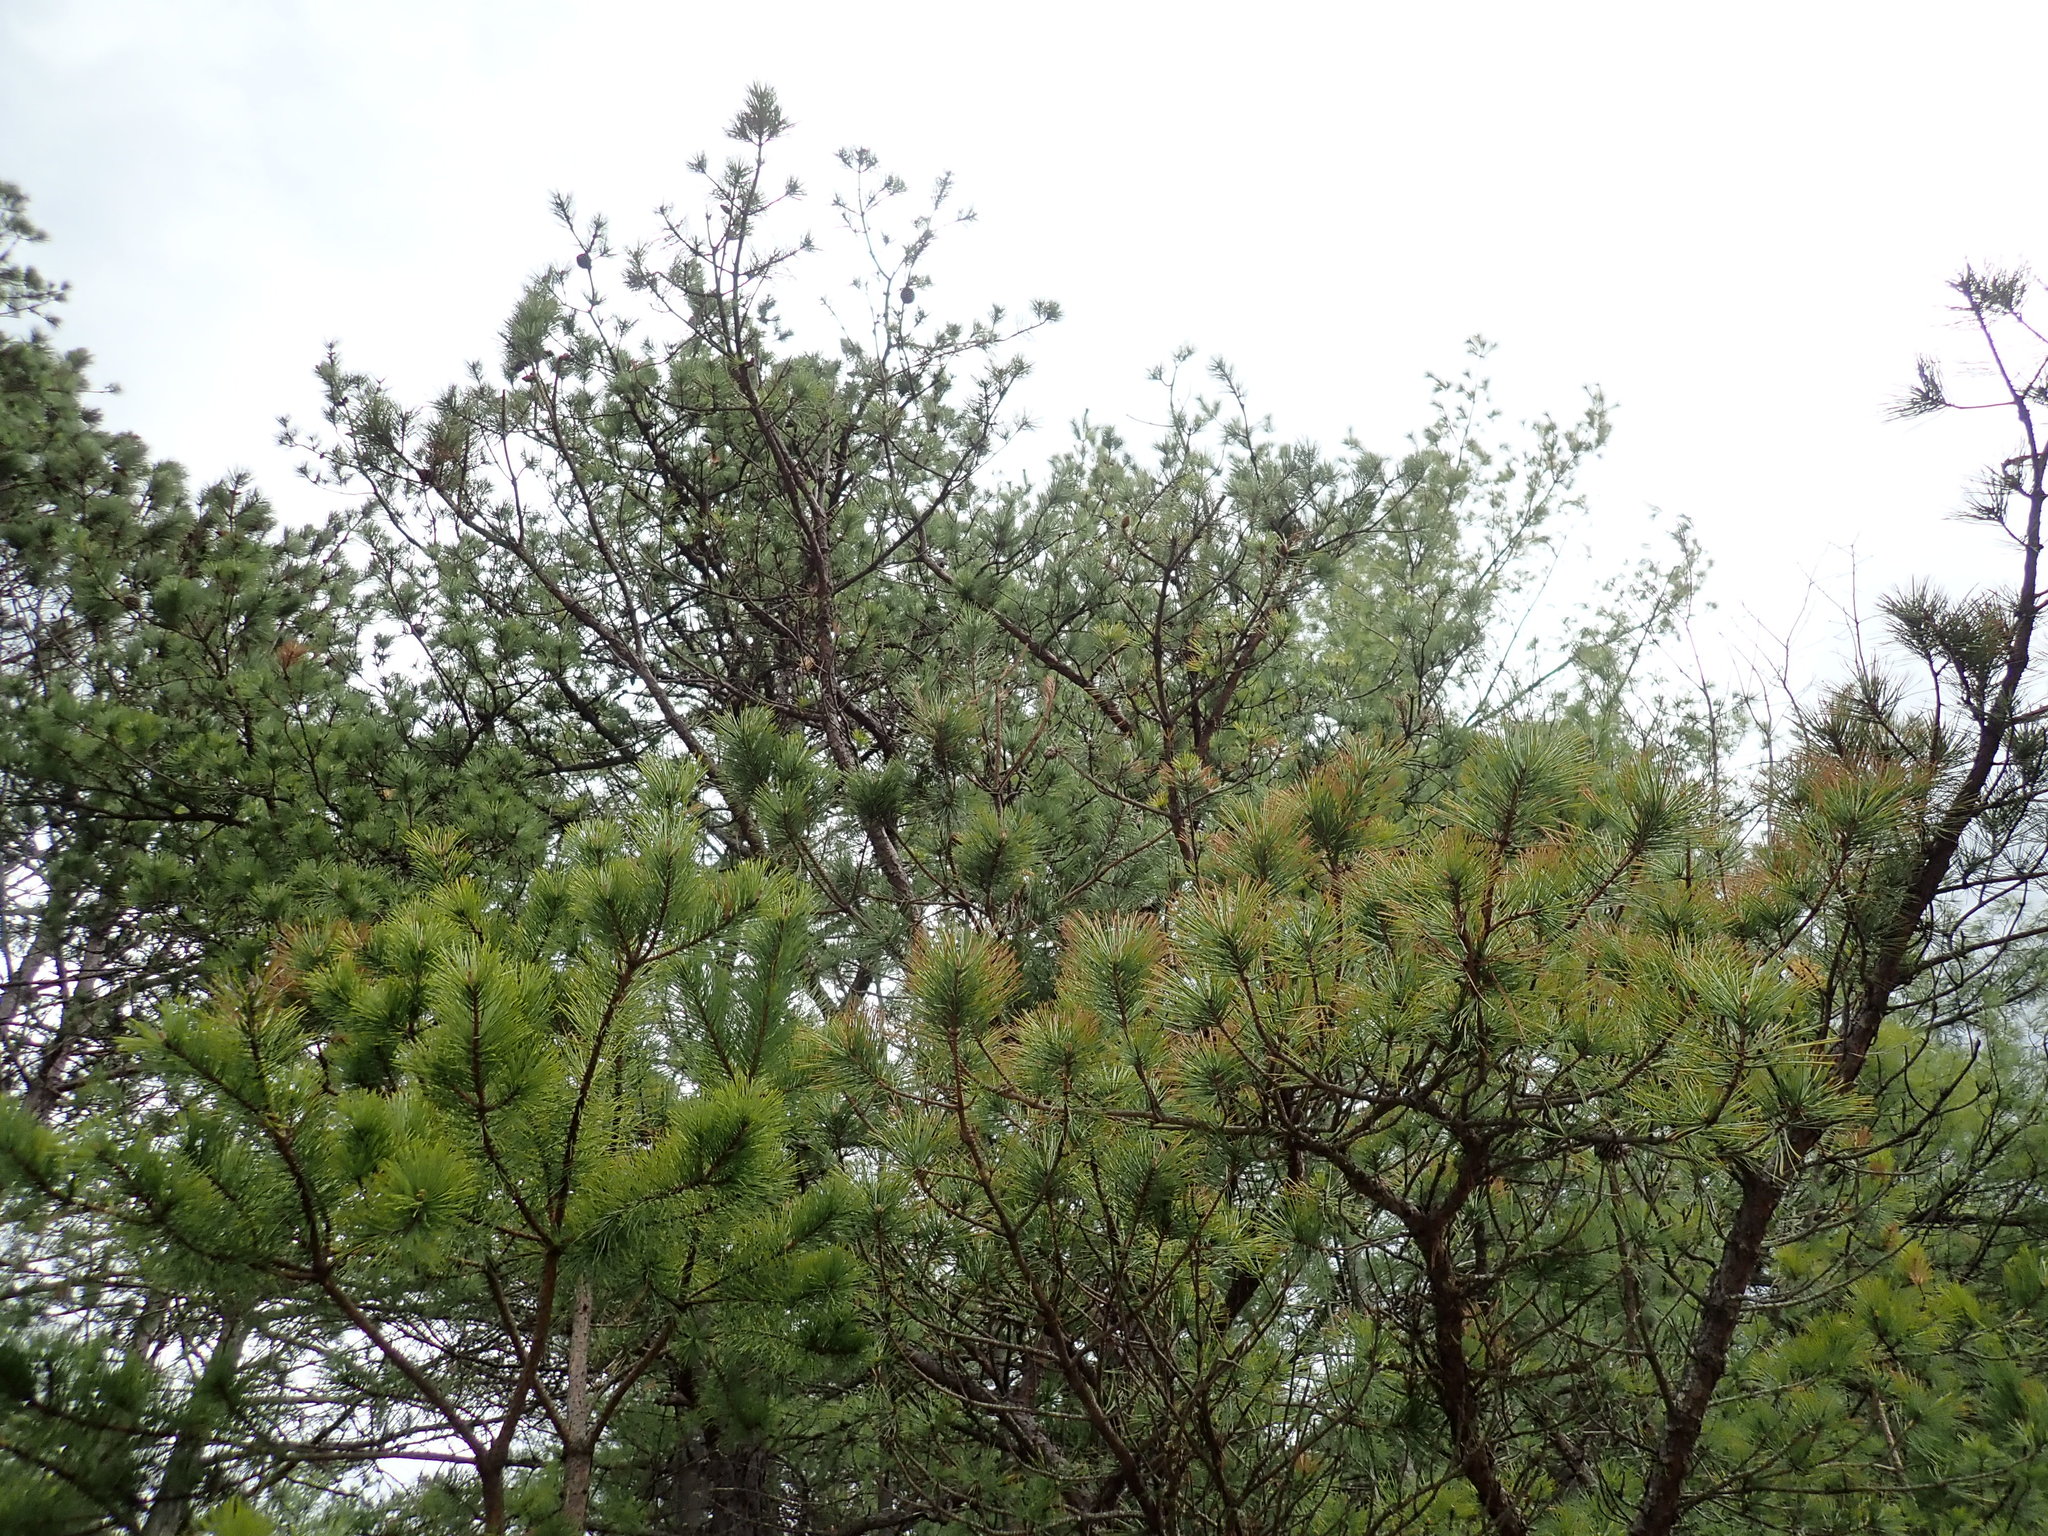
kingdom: Plantae
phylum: Tracheophyta
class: Pinopsida
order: Pinales
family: Pinaceae
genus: Pinus
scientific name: Pinus rigida
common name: Pitch pine
